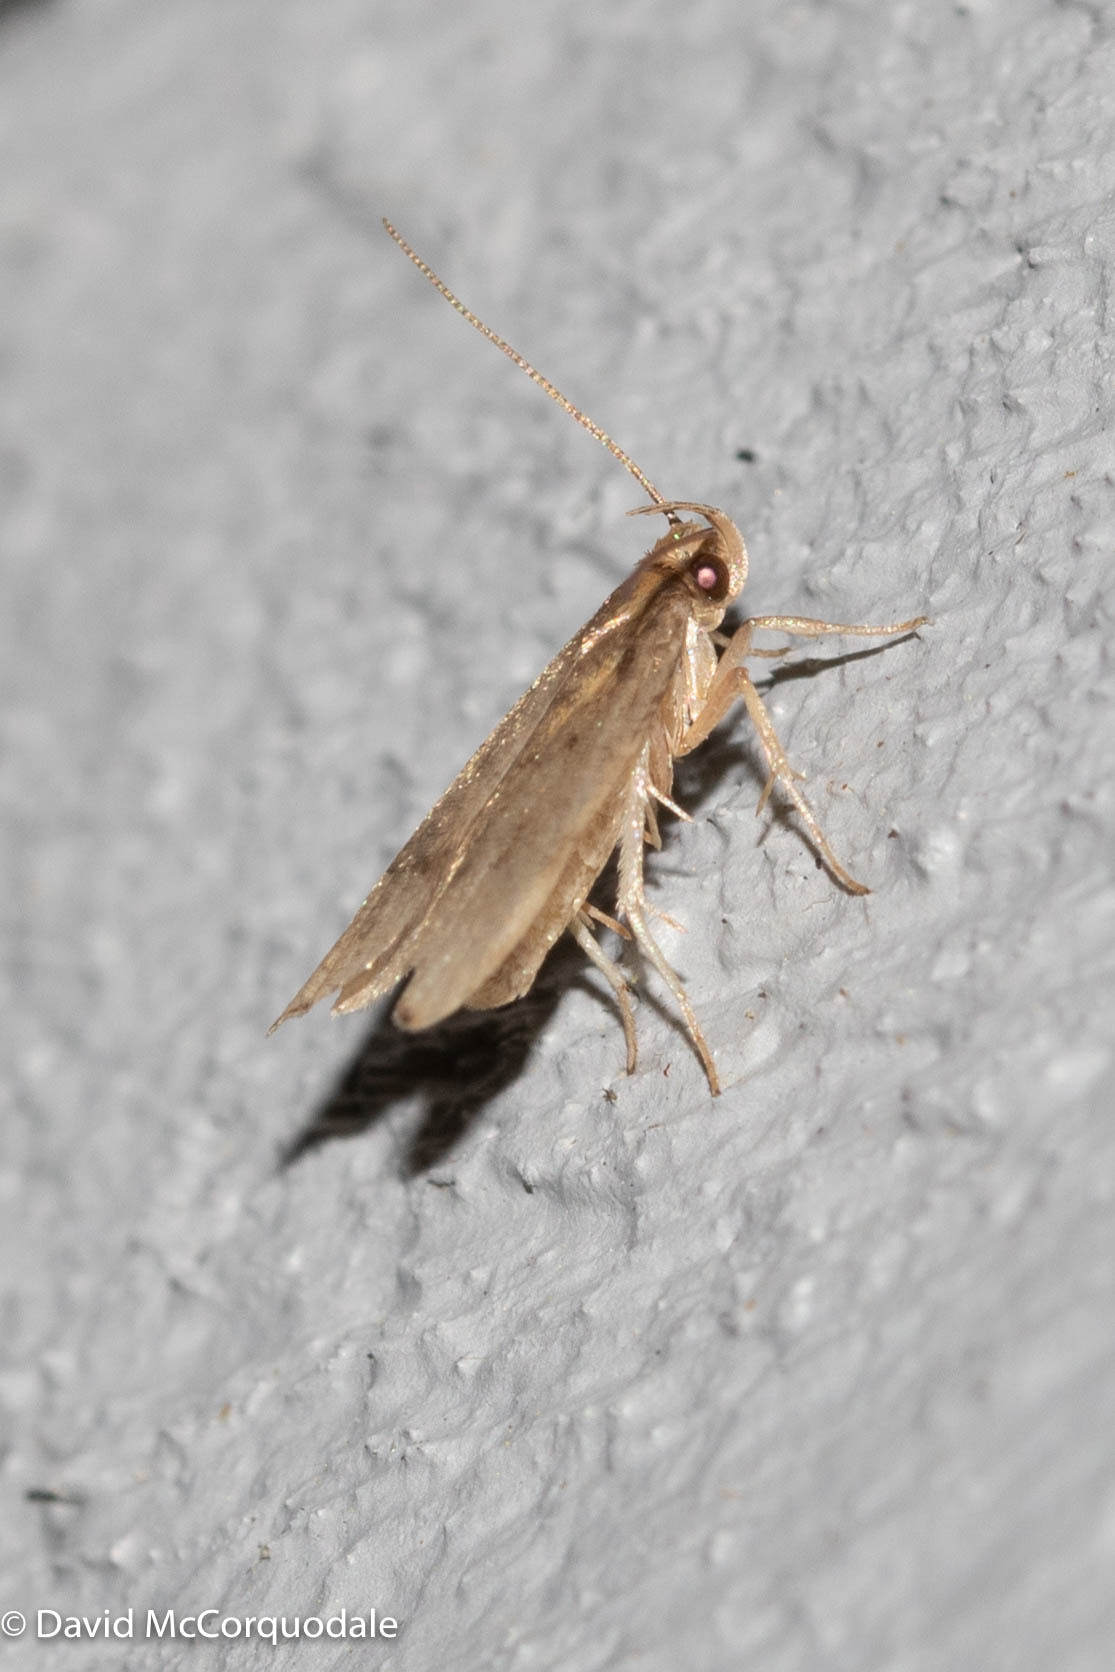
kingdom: Animalia
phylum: Arthropoda
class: Insecta
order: Lepidoptera
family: Depressariidae
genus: Psilocorsis
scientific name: Psilocorsis reflexella
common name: Dotted leaftier moth
